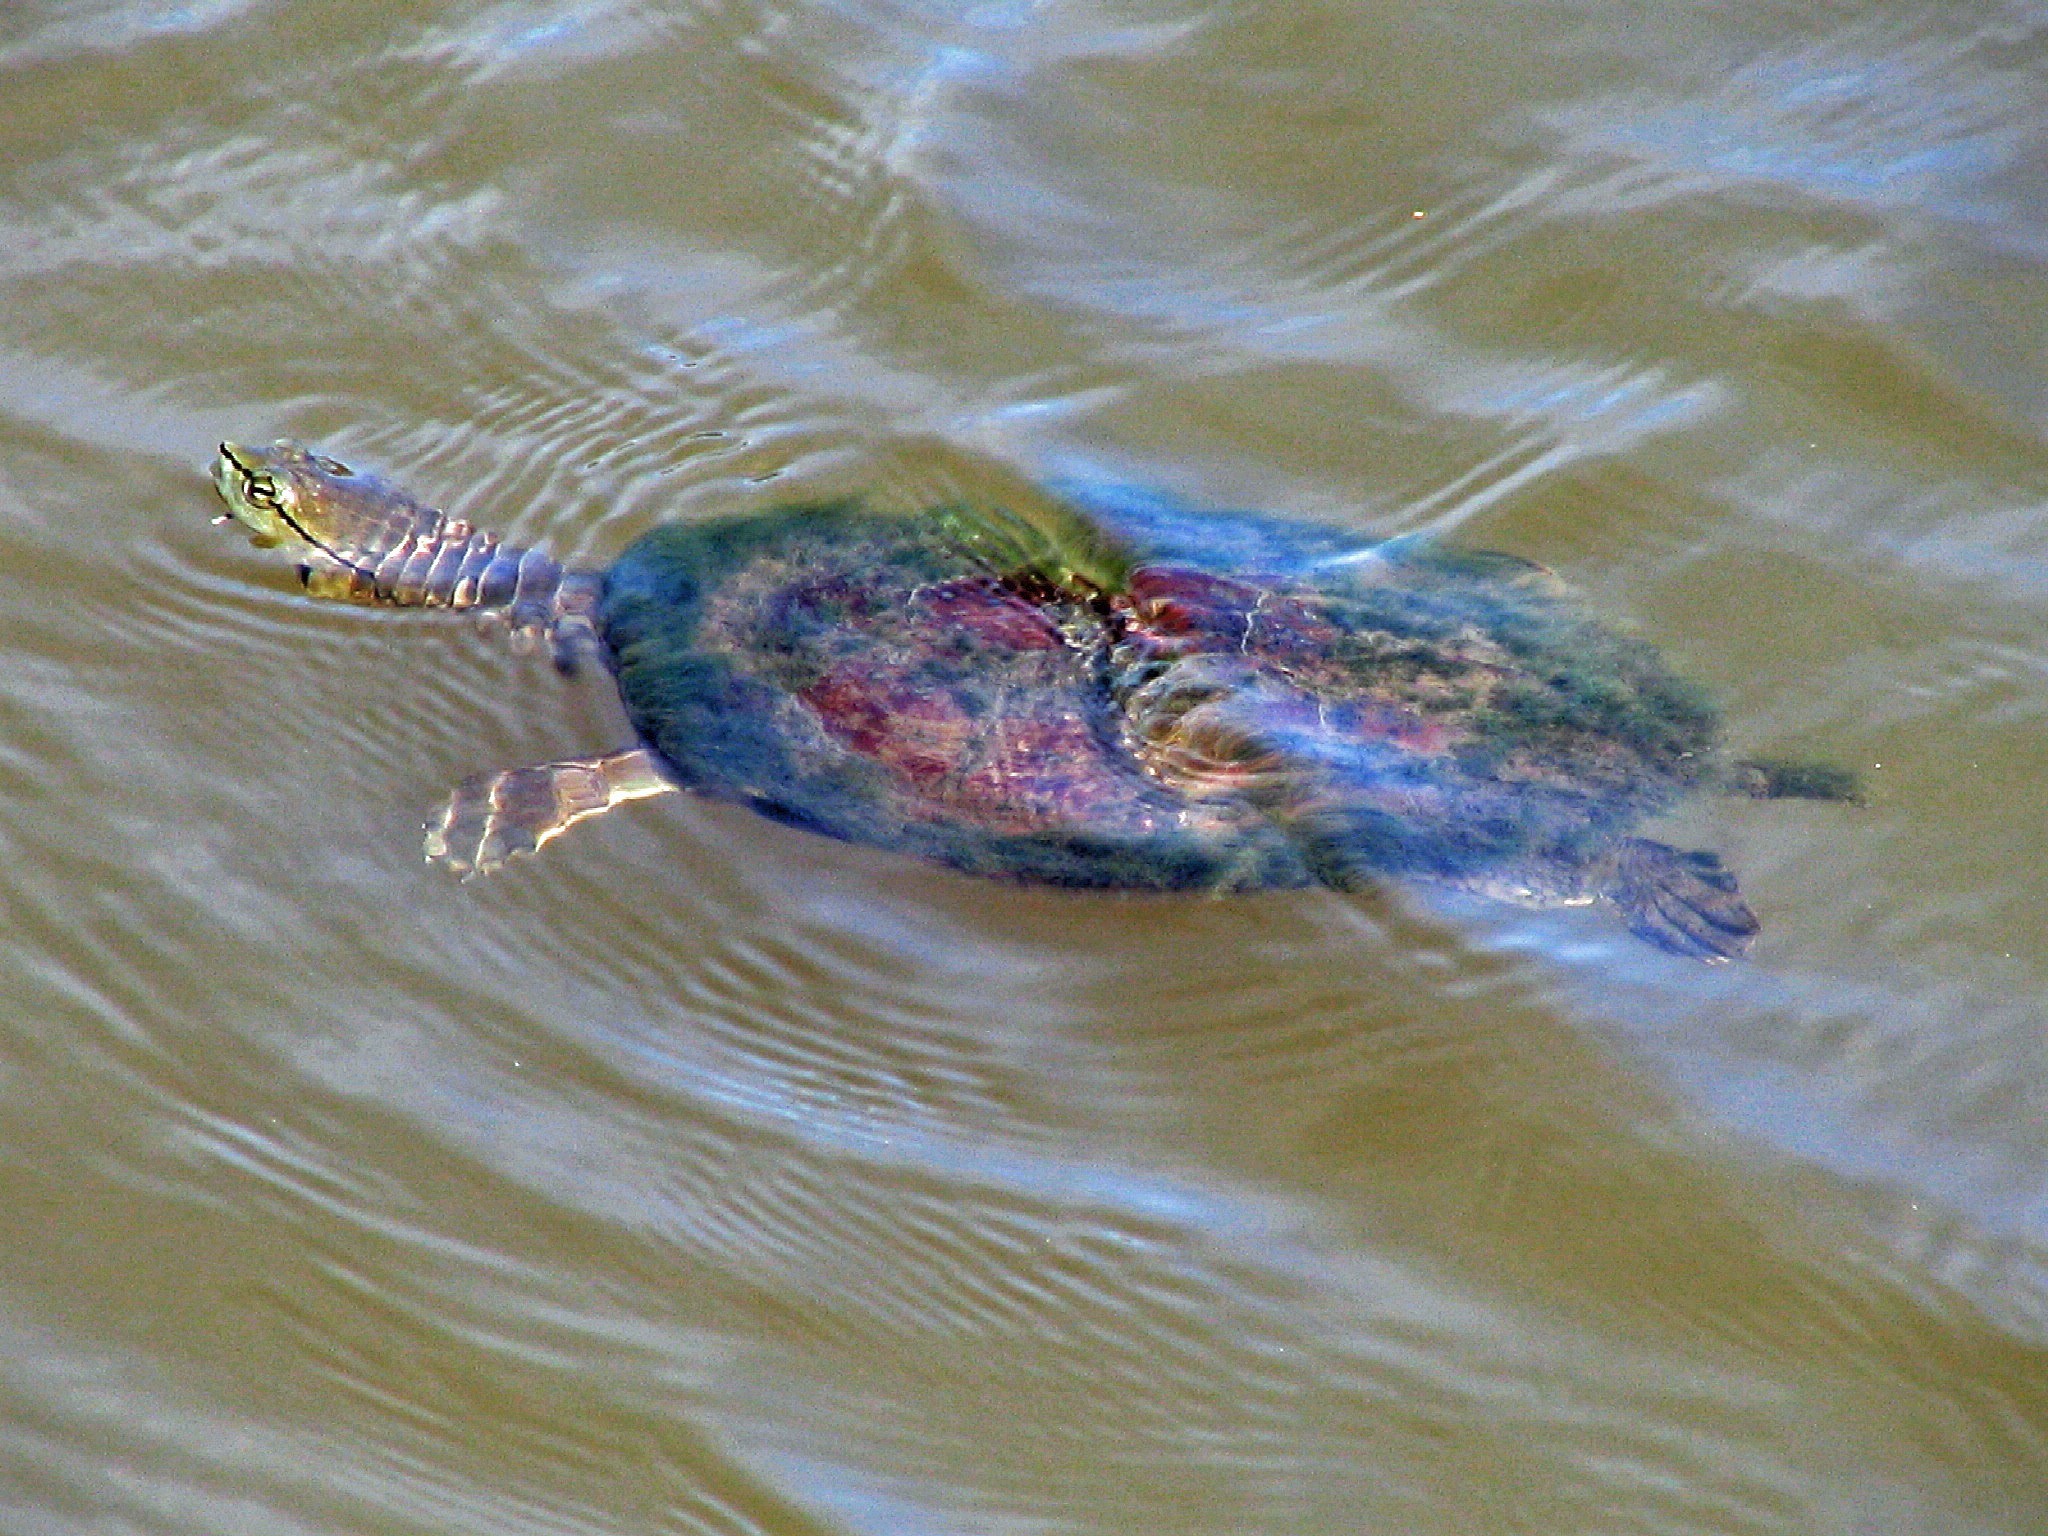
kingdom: Animalia
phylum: Chordata
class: Testudines
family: Chelidae
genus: Phrynops
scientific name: Phrynops hilarii
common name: Side-necked turtle of saint hillaire
